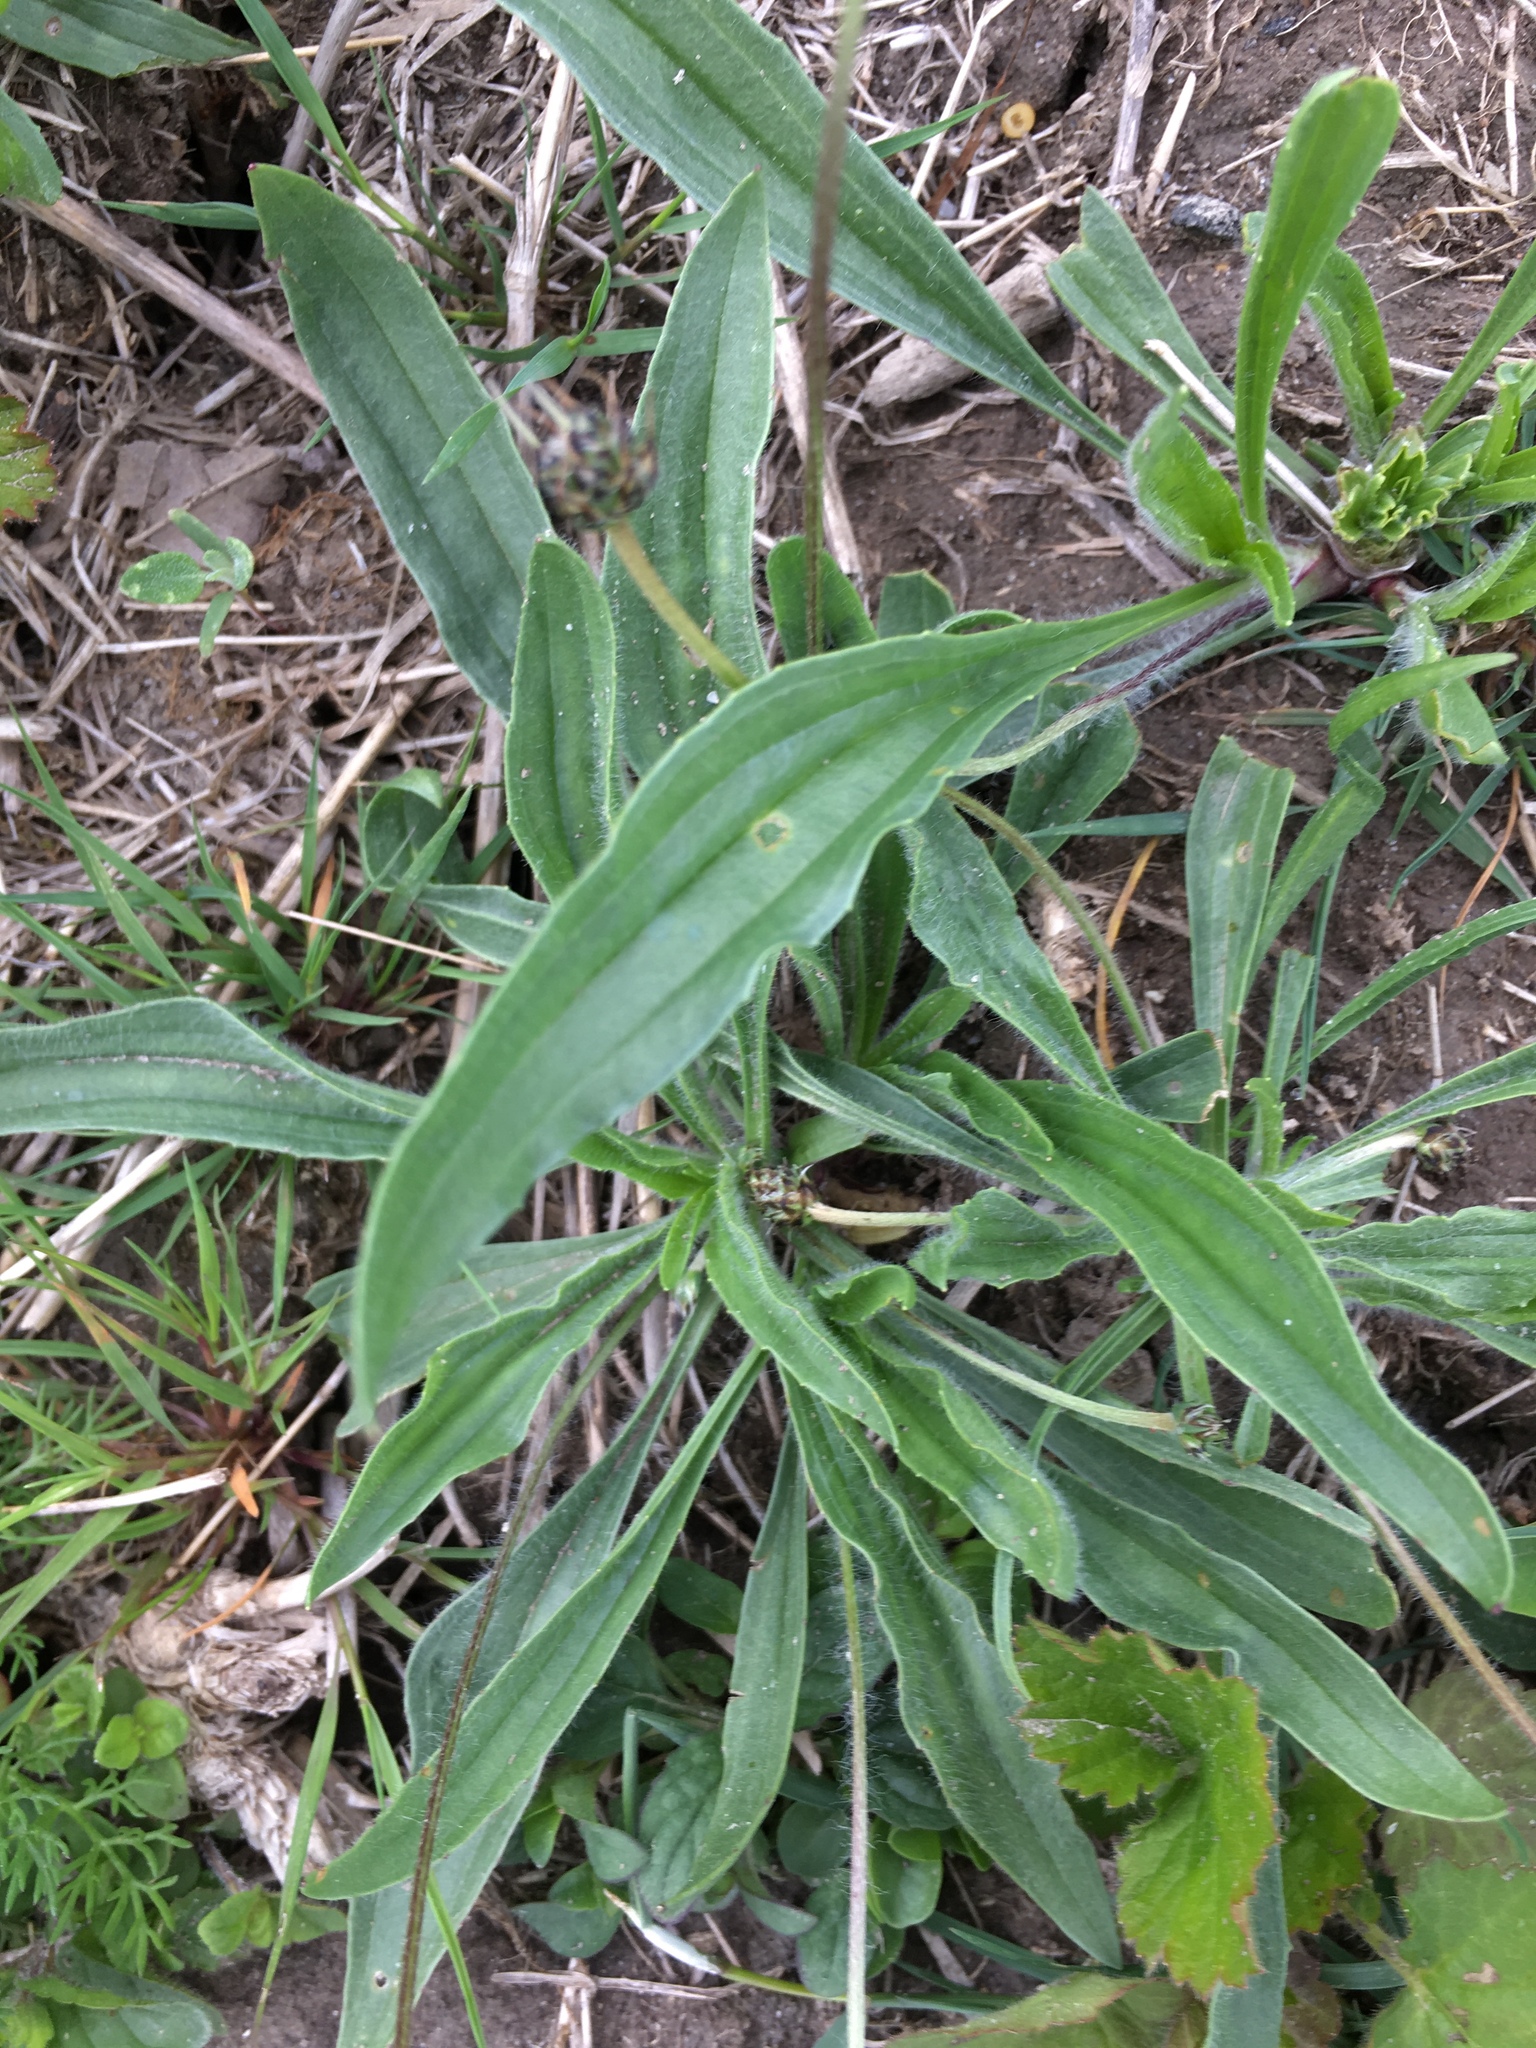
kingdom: Plantae
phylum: Tracheophyta
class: Magnoliopsida
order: Lamiales
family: Plantaginaceae
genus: Plantago
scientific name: Plantago lanceolata
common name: Ribwort plantain
